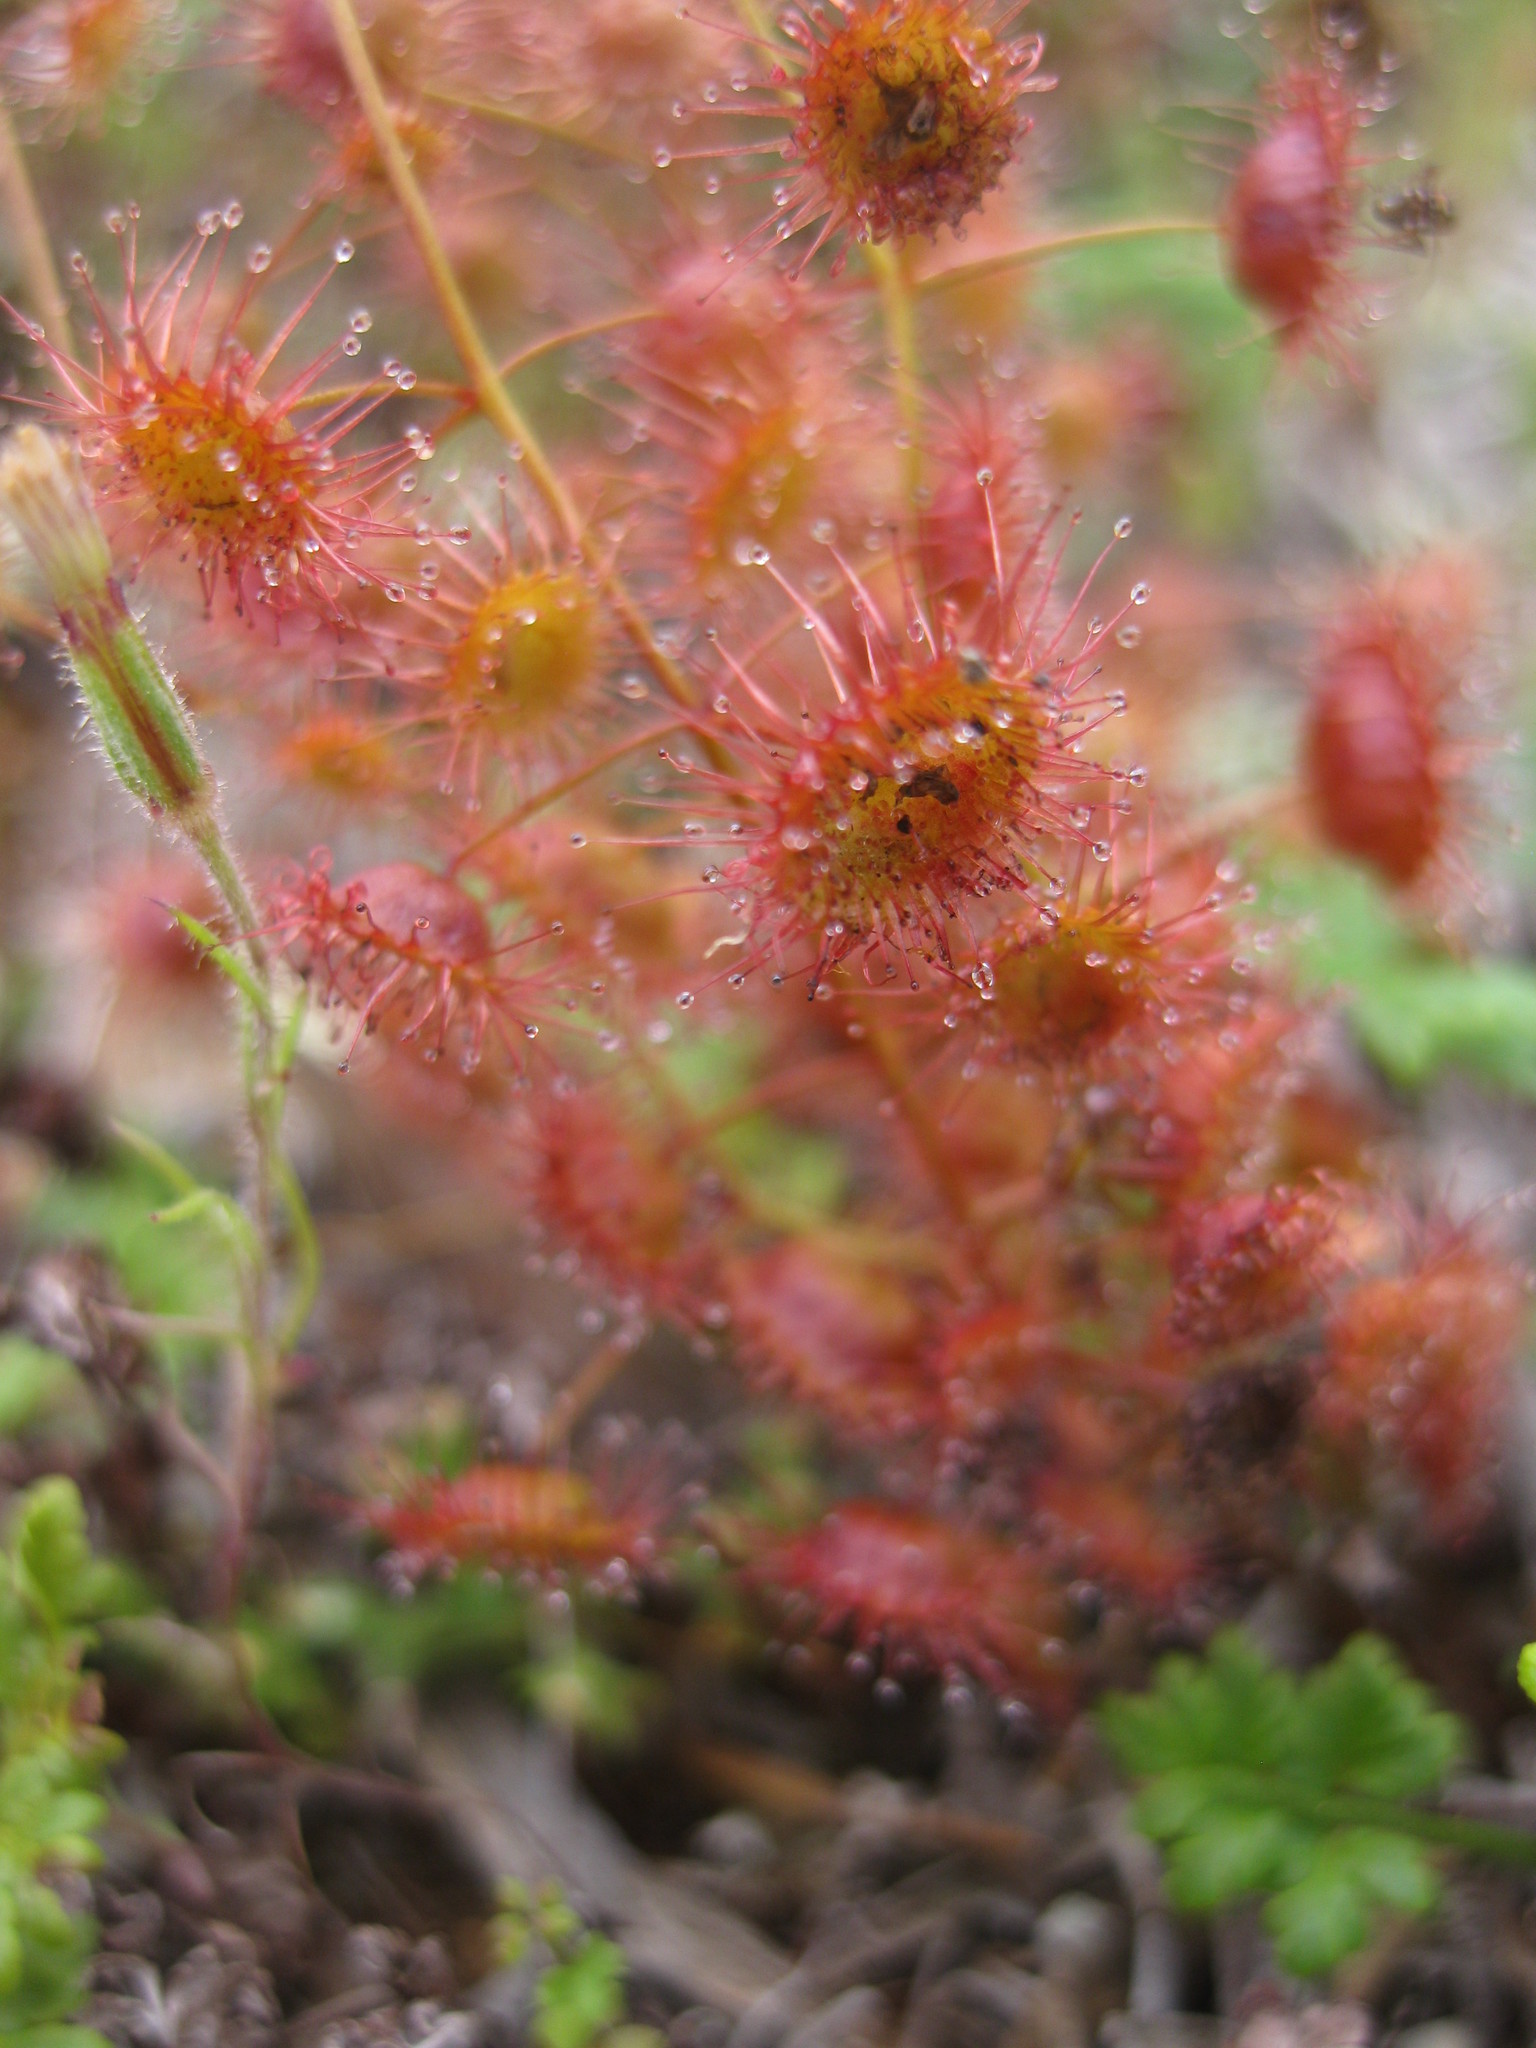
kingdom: Plantae
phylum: Tracheophyta
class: Magnoliopsida
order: Caryophyllales
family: Droseraceae
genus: Drosera
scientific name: Drosera macrantha
